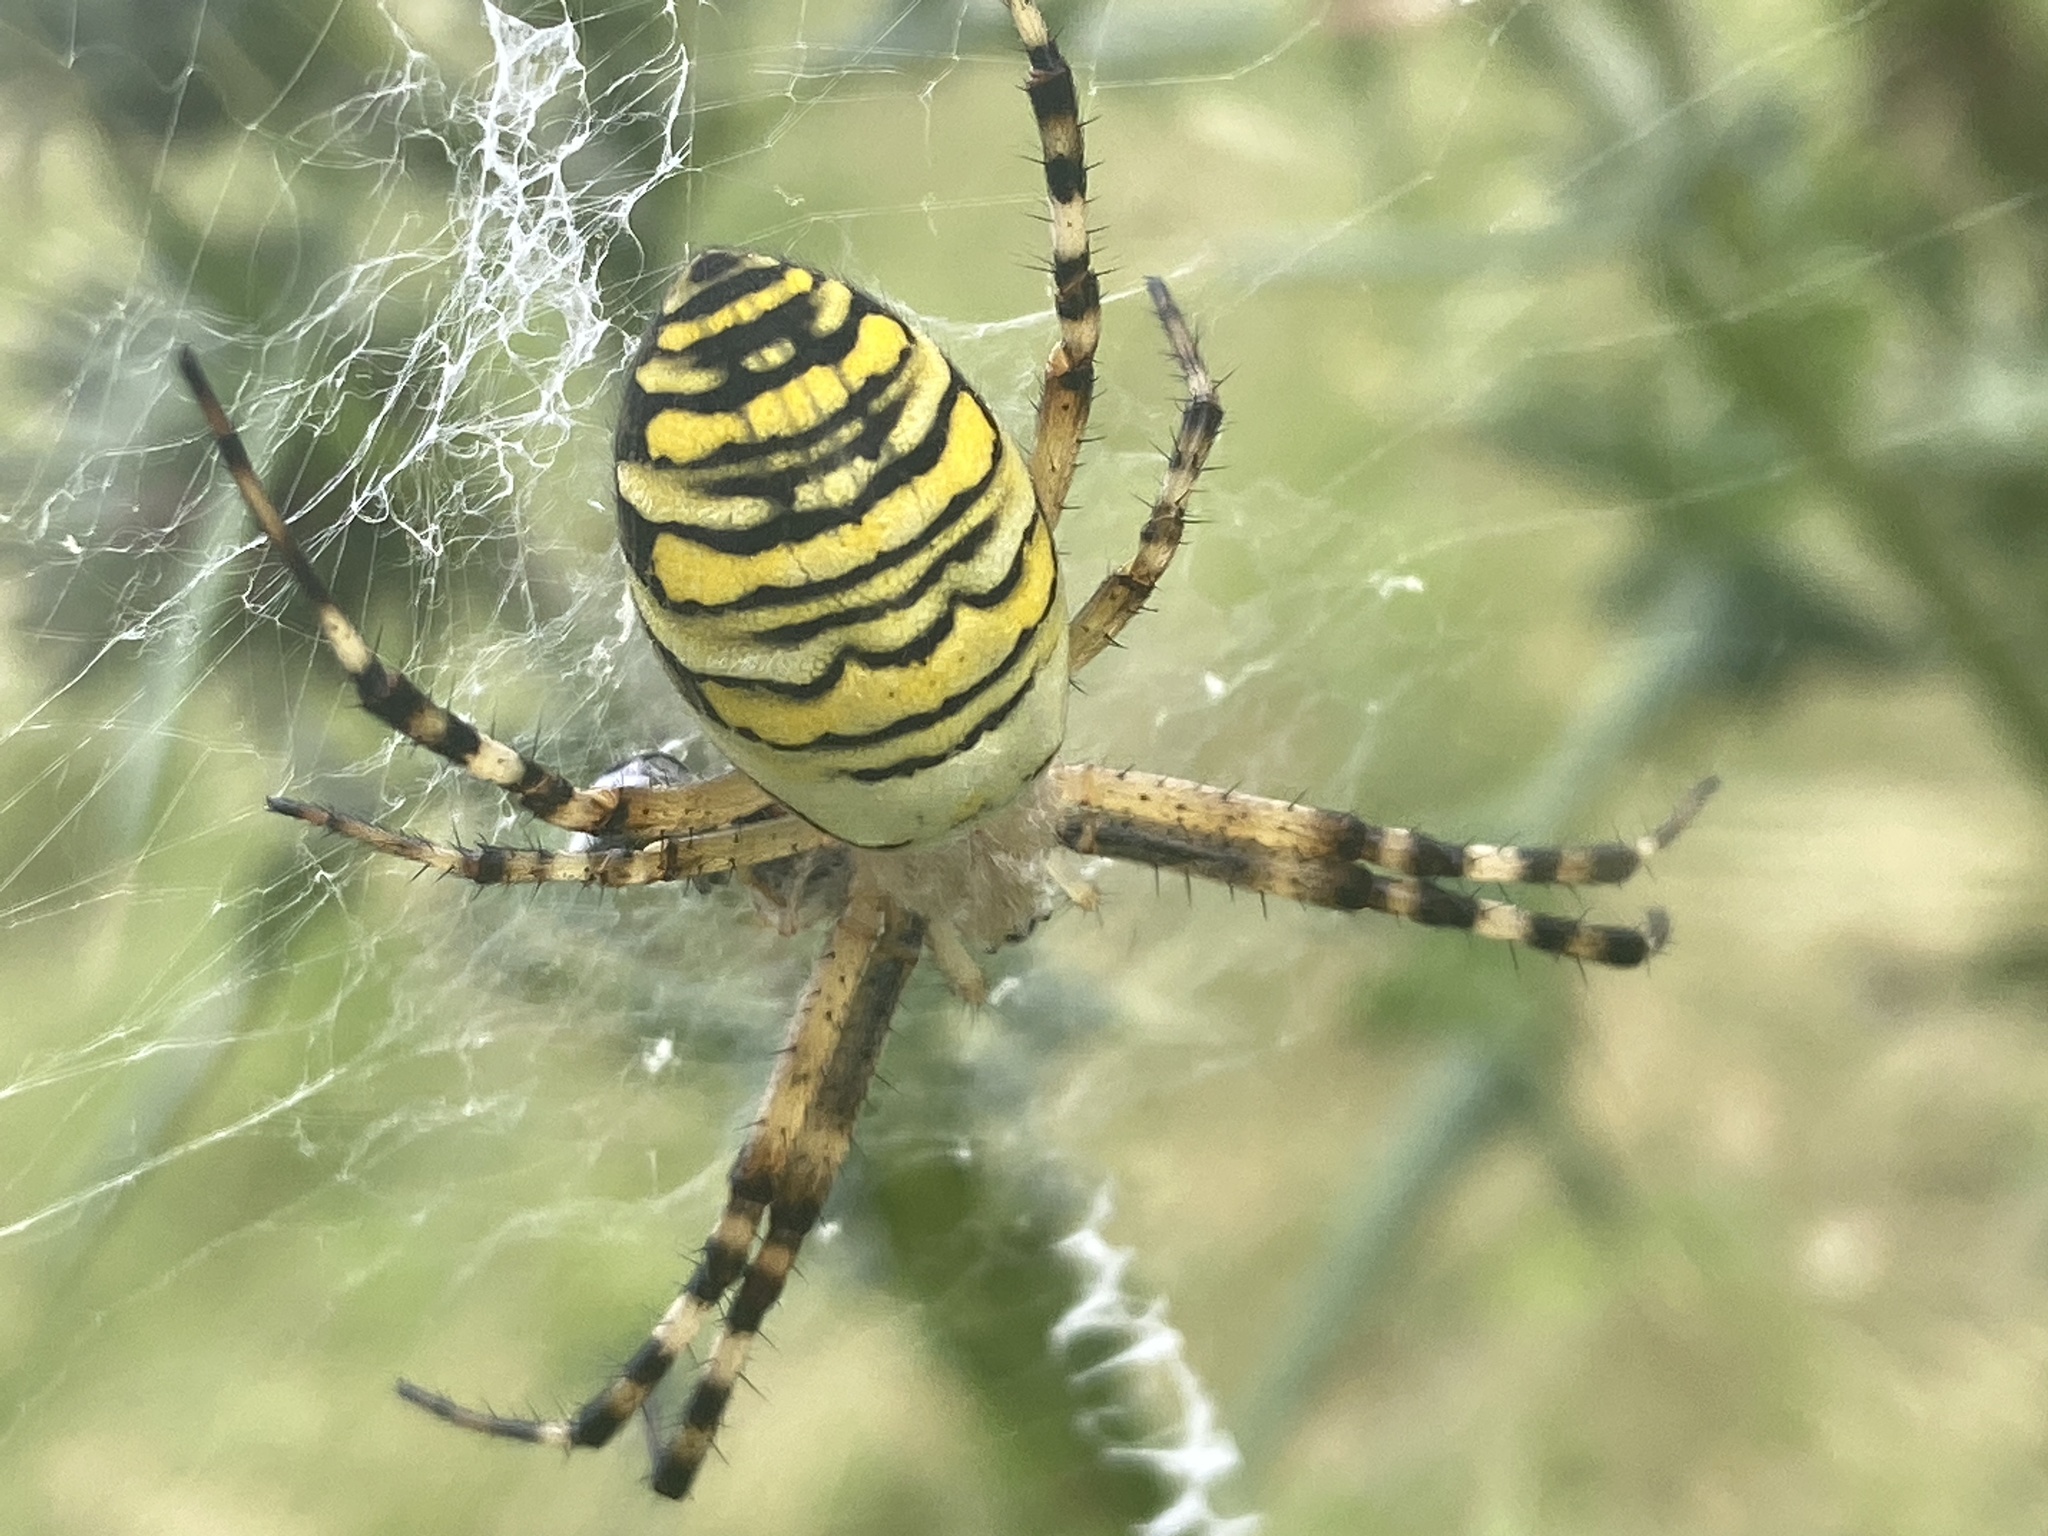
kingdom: Animalia
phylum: Arthropoda
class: Arachnida
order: Araneae
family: Araneidae
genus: Argiope
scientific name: Argiope bruennichi
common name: Wasp spider
